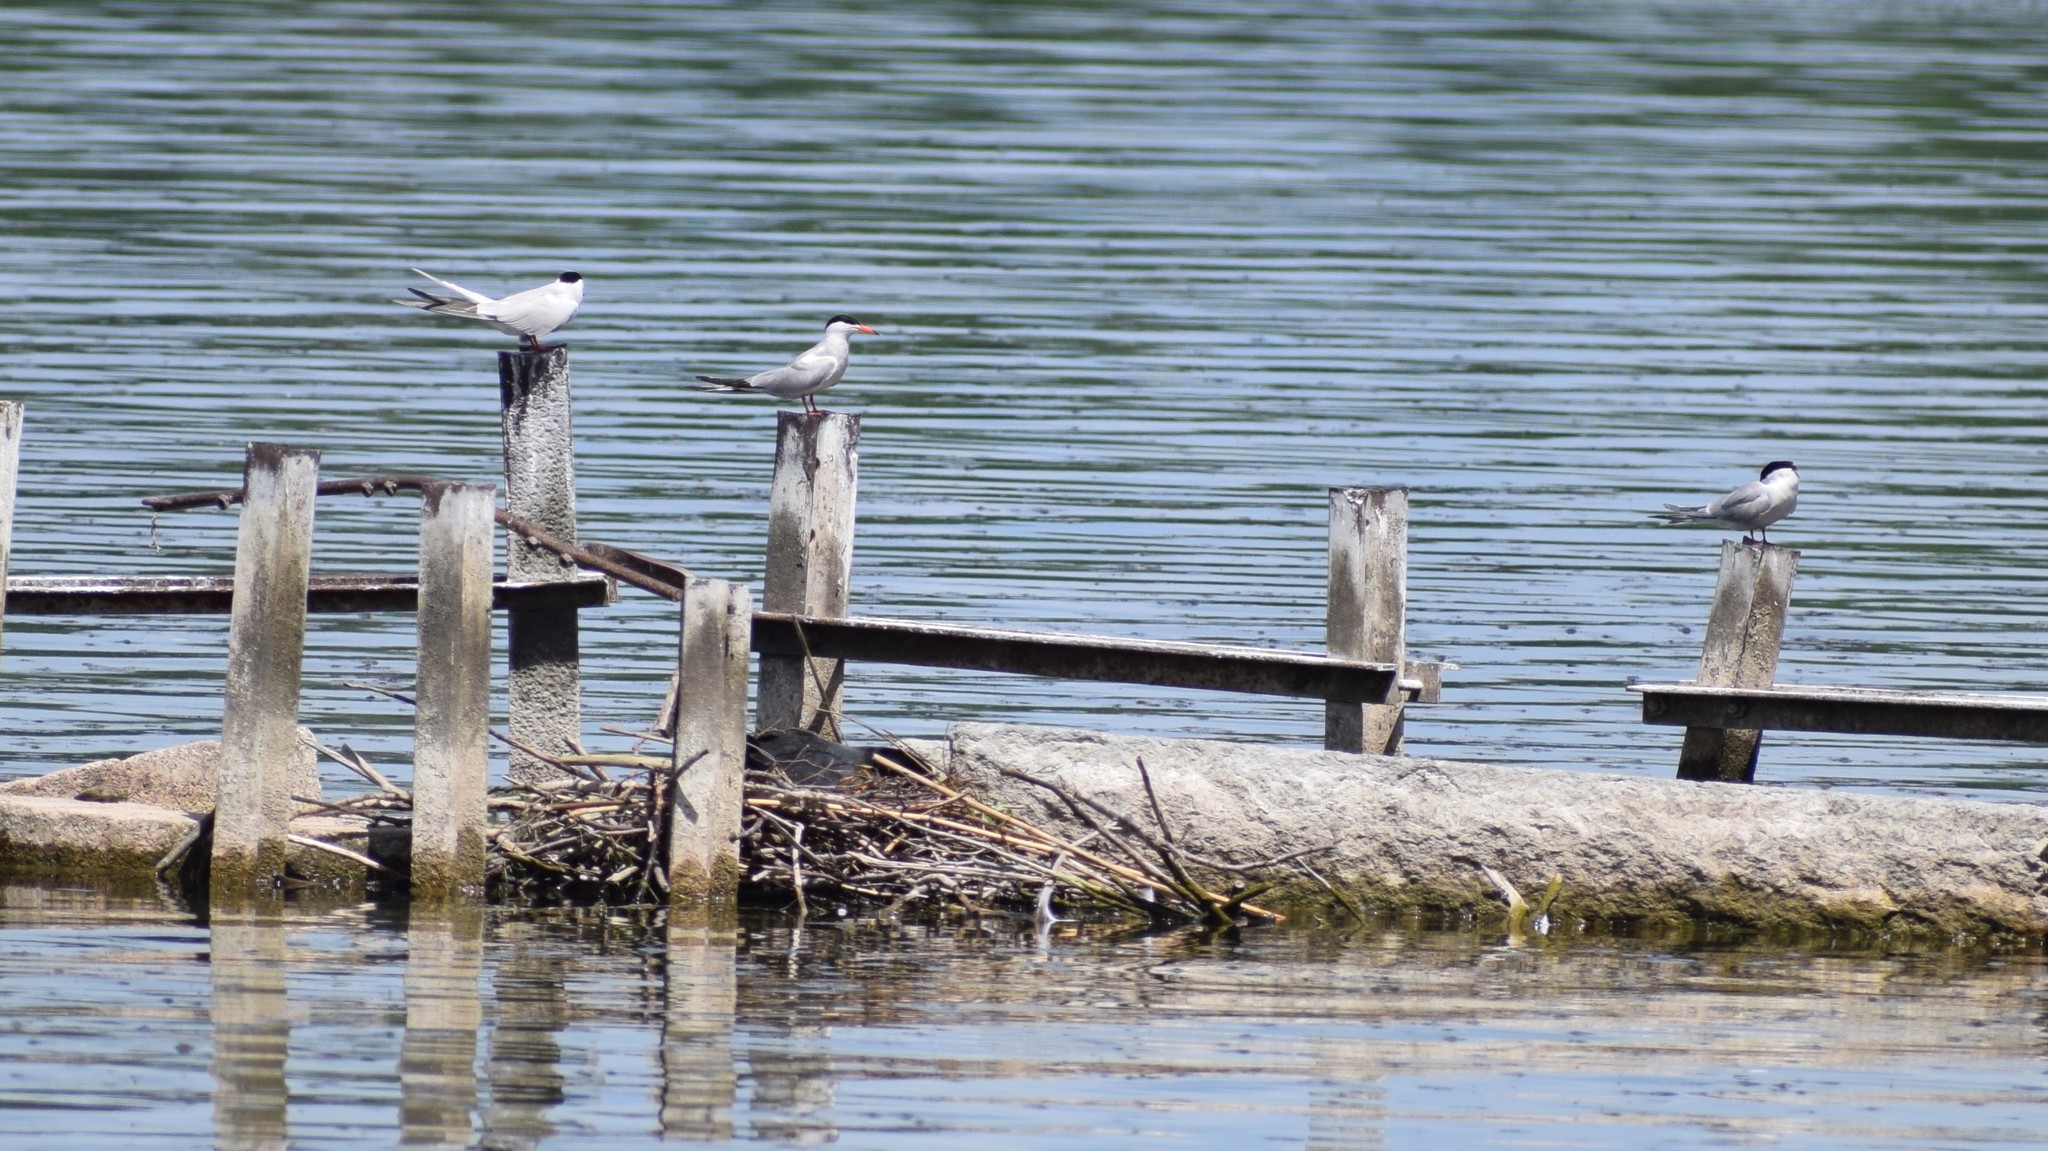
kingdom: Animalia
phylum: Chordata
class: Aves
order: Charadriiformes
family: Laridae
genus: Sterna
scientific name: Sterna hirundo
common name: Common tern
